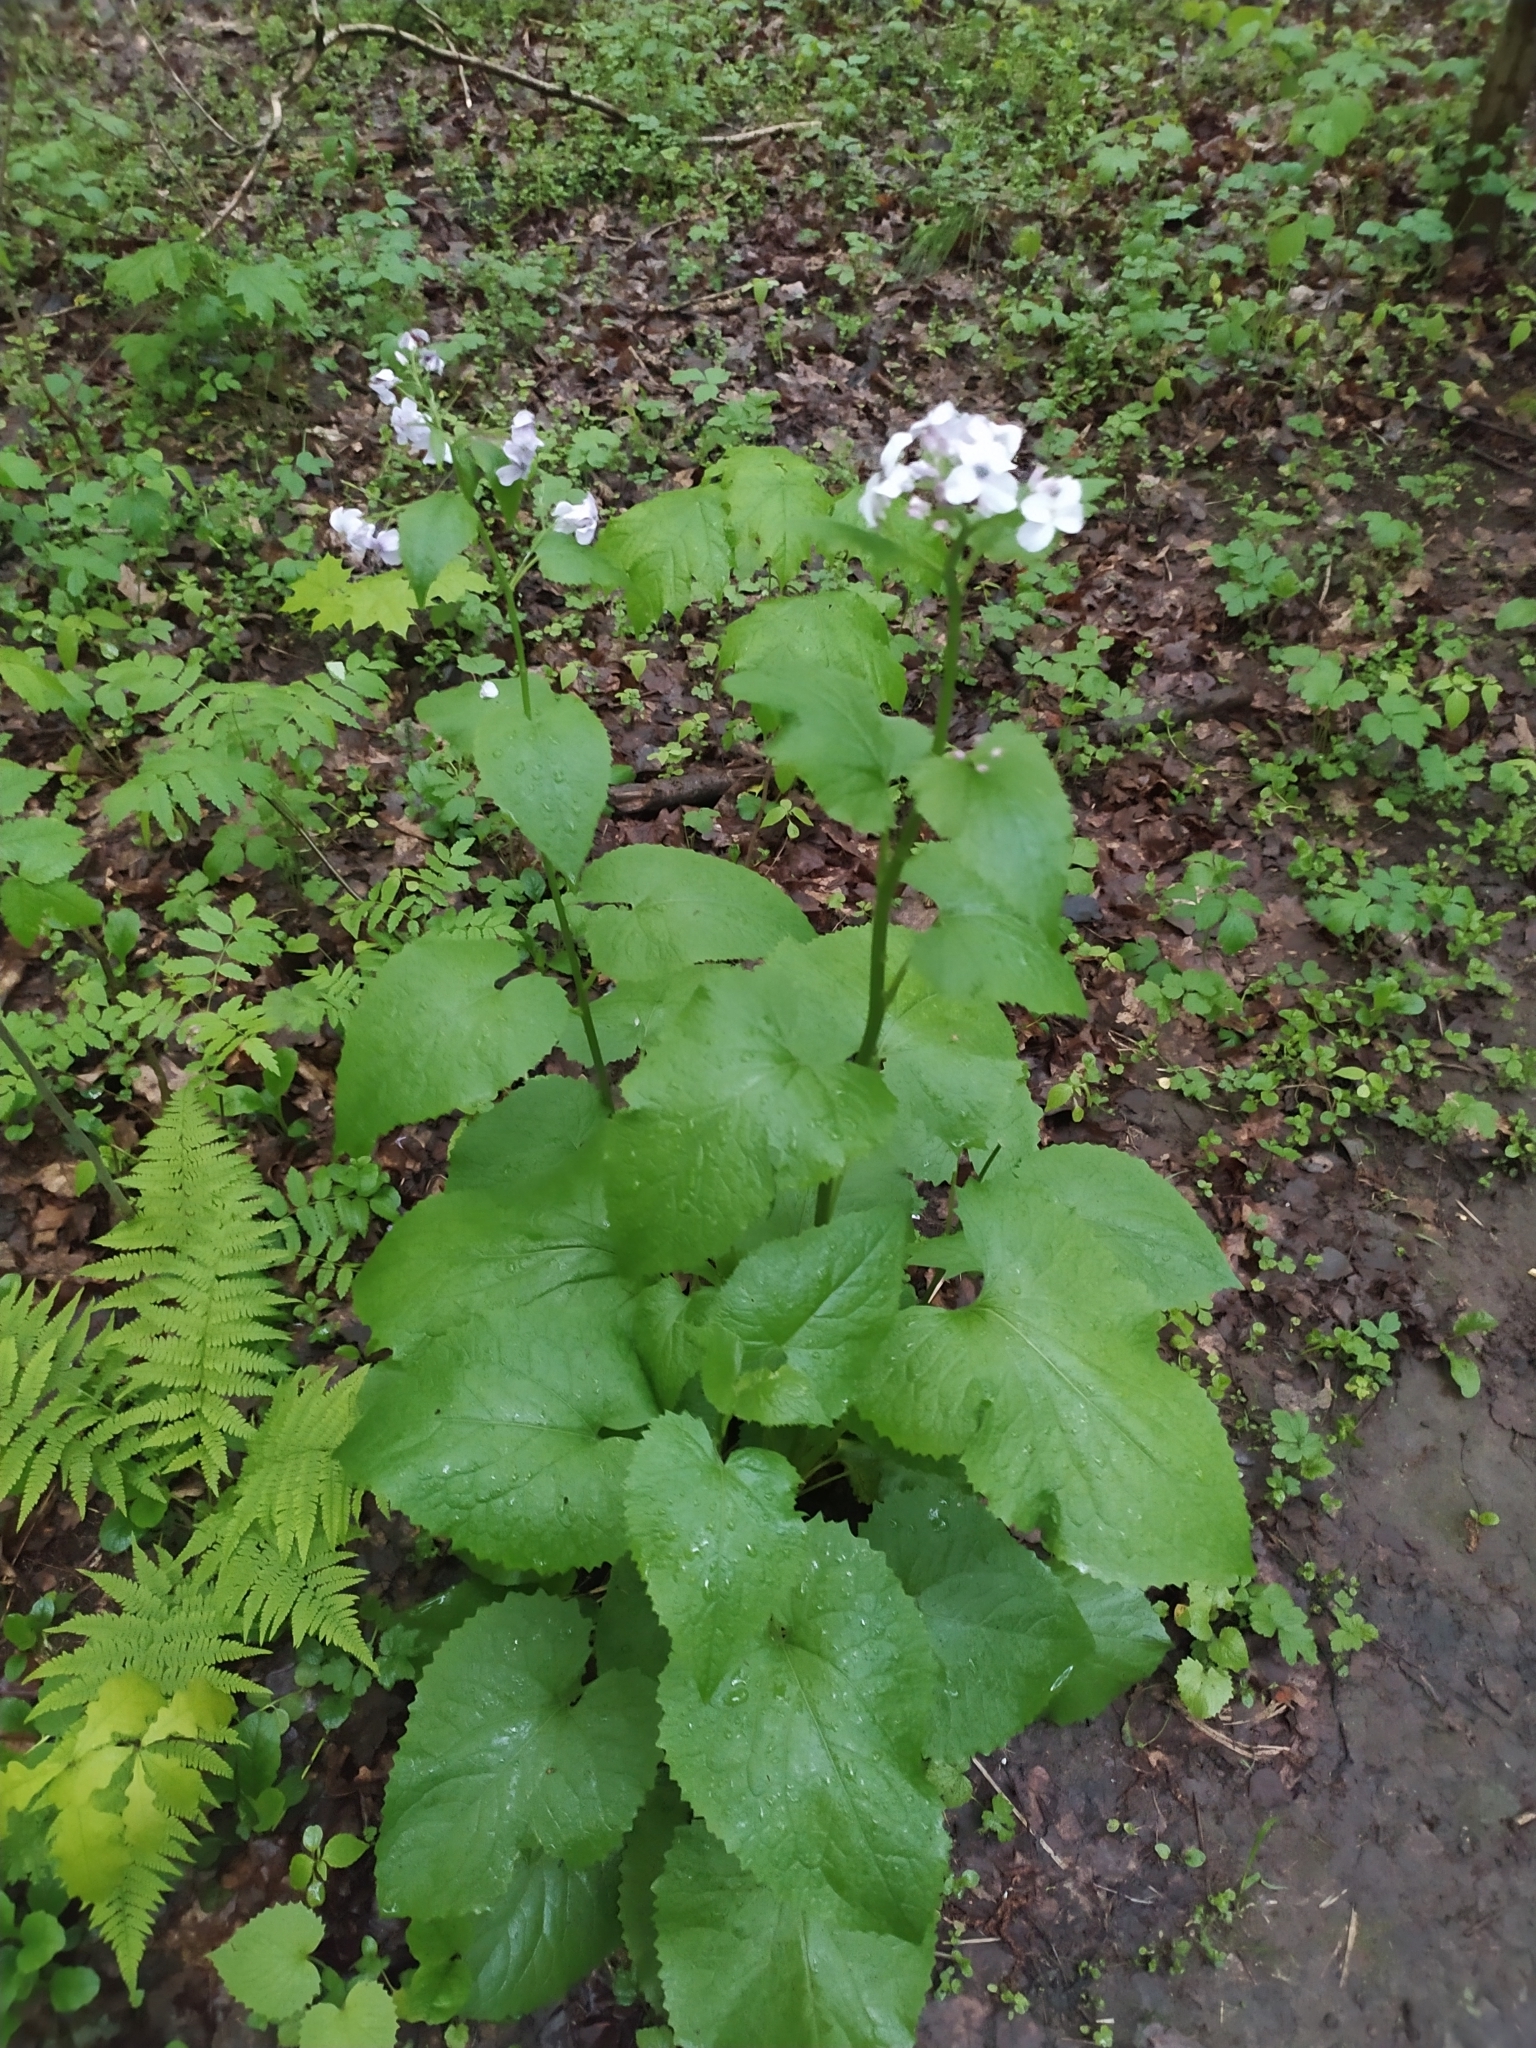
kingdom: Plantae
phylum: Tracheophyta
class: Magnoliopsida
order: Brassicales
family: Brassicaceae
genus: Lunaria
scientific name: Lunaria rediviva
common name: Perennial honesty
